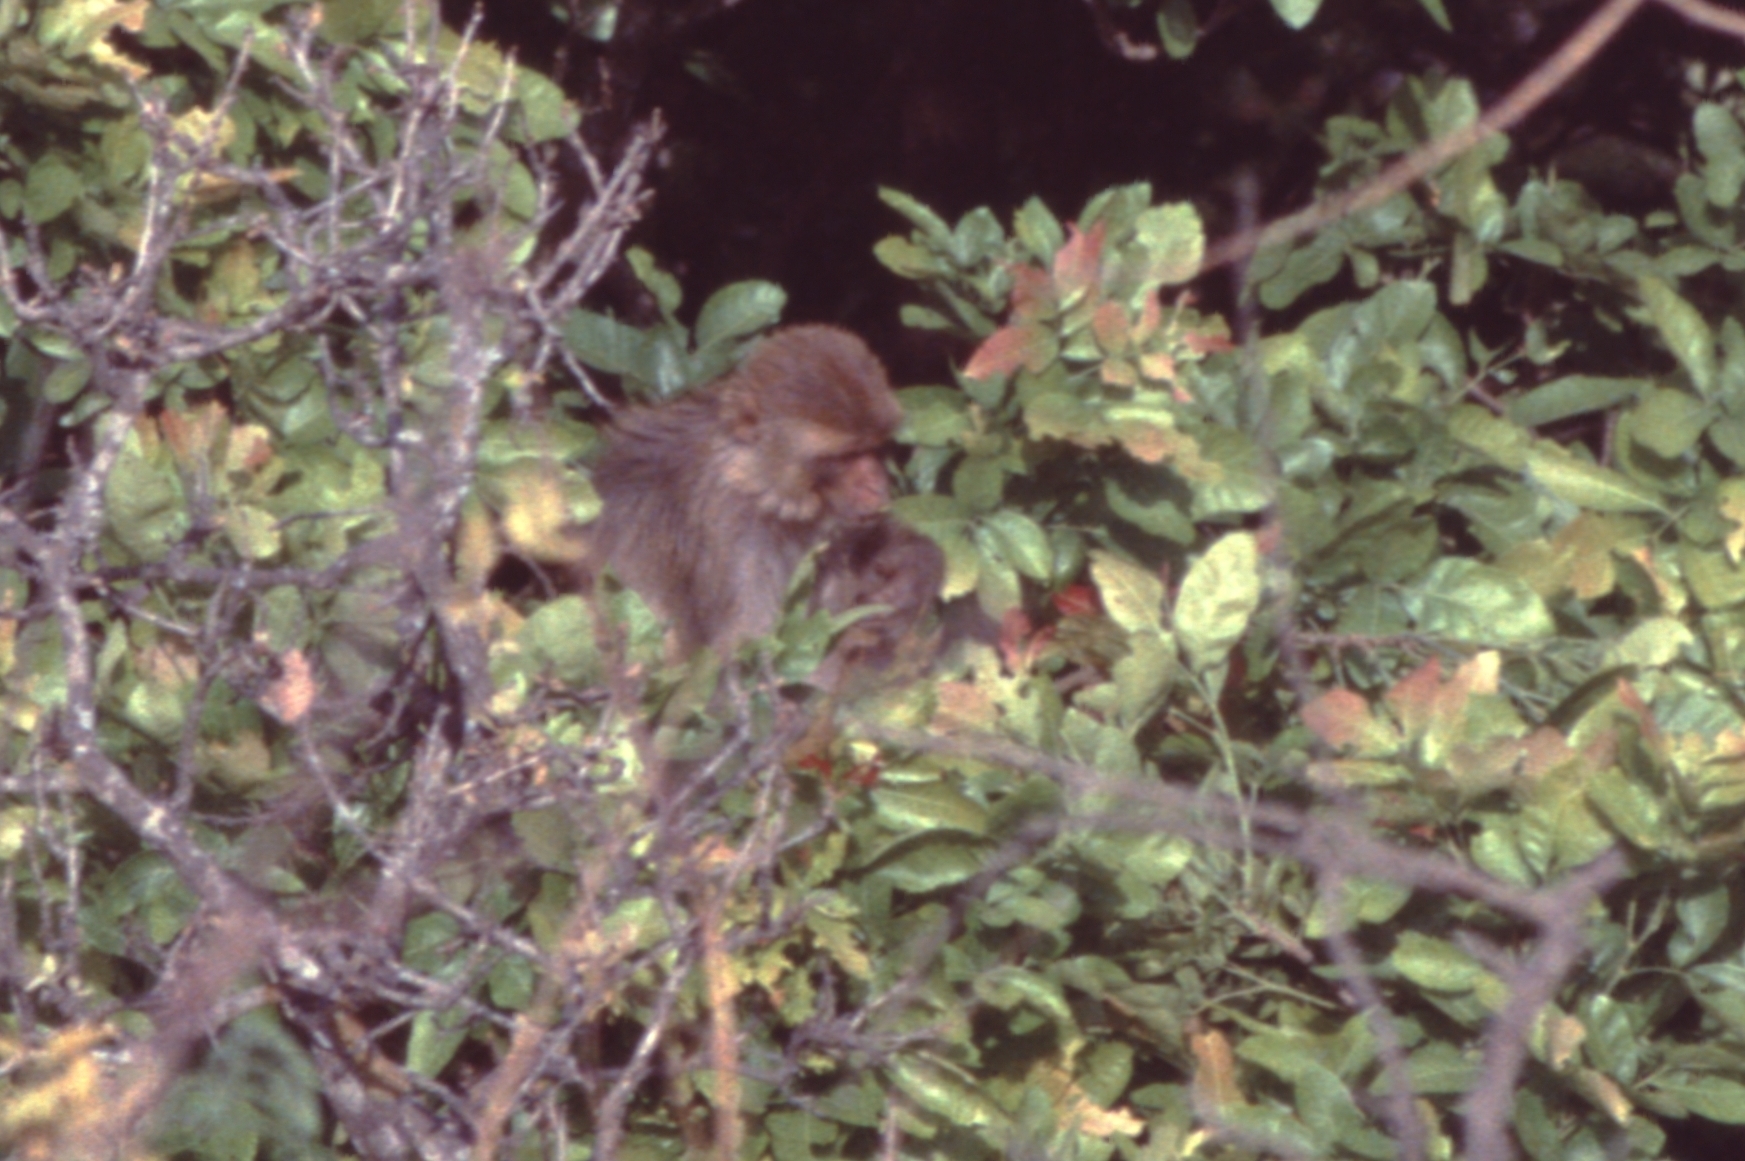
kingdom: Animalia
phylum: Chordata
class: Mammalia
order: Primates
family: Cercopithecidae
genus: Macaca
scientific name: Macaca mulatta
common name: Rhesus monkey
